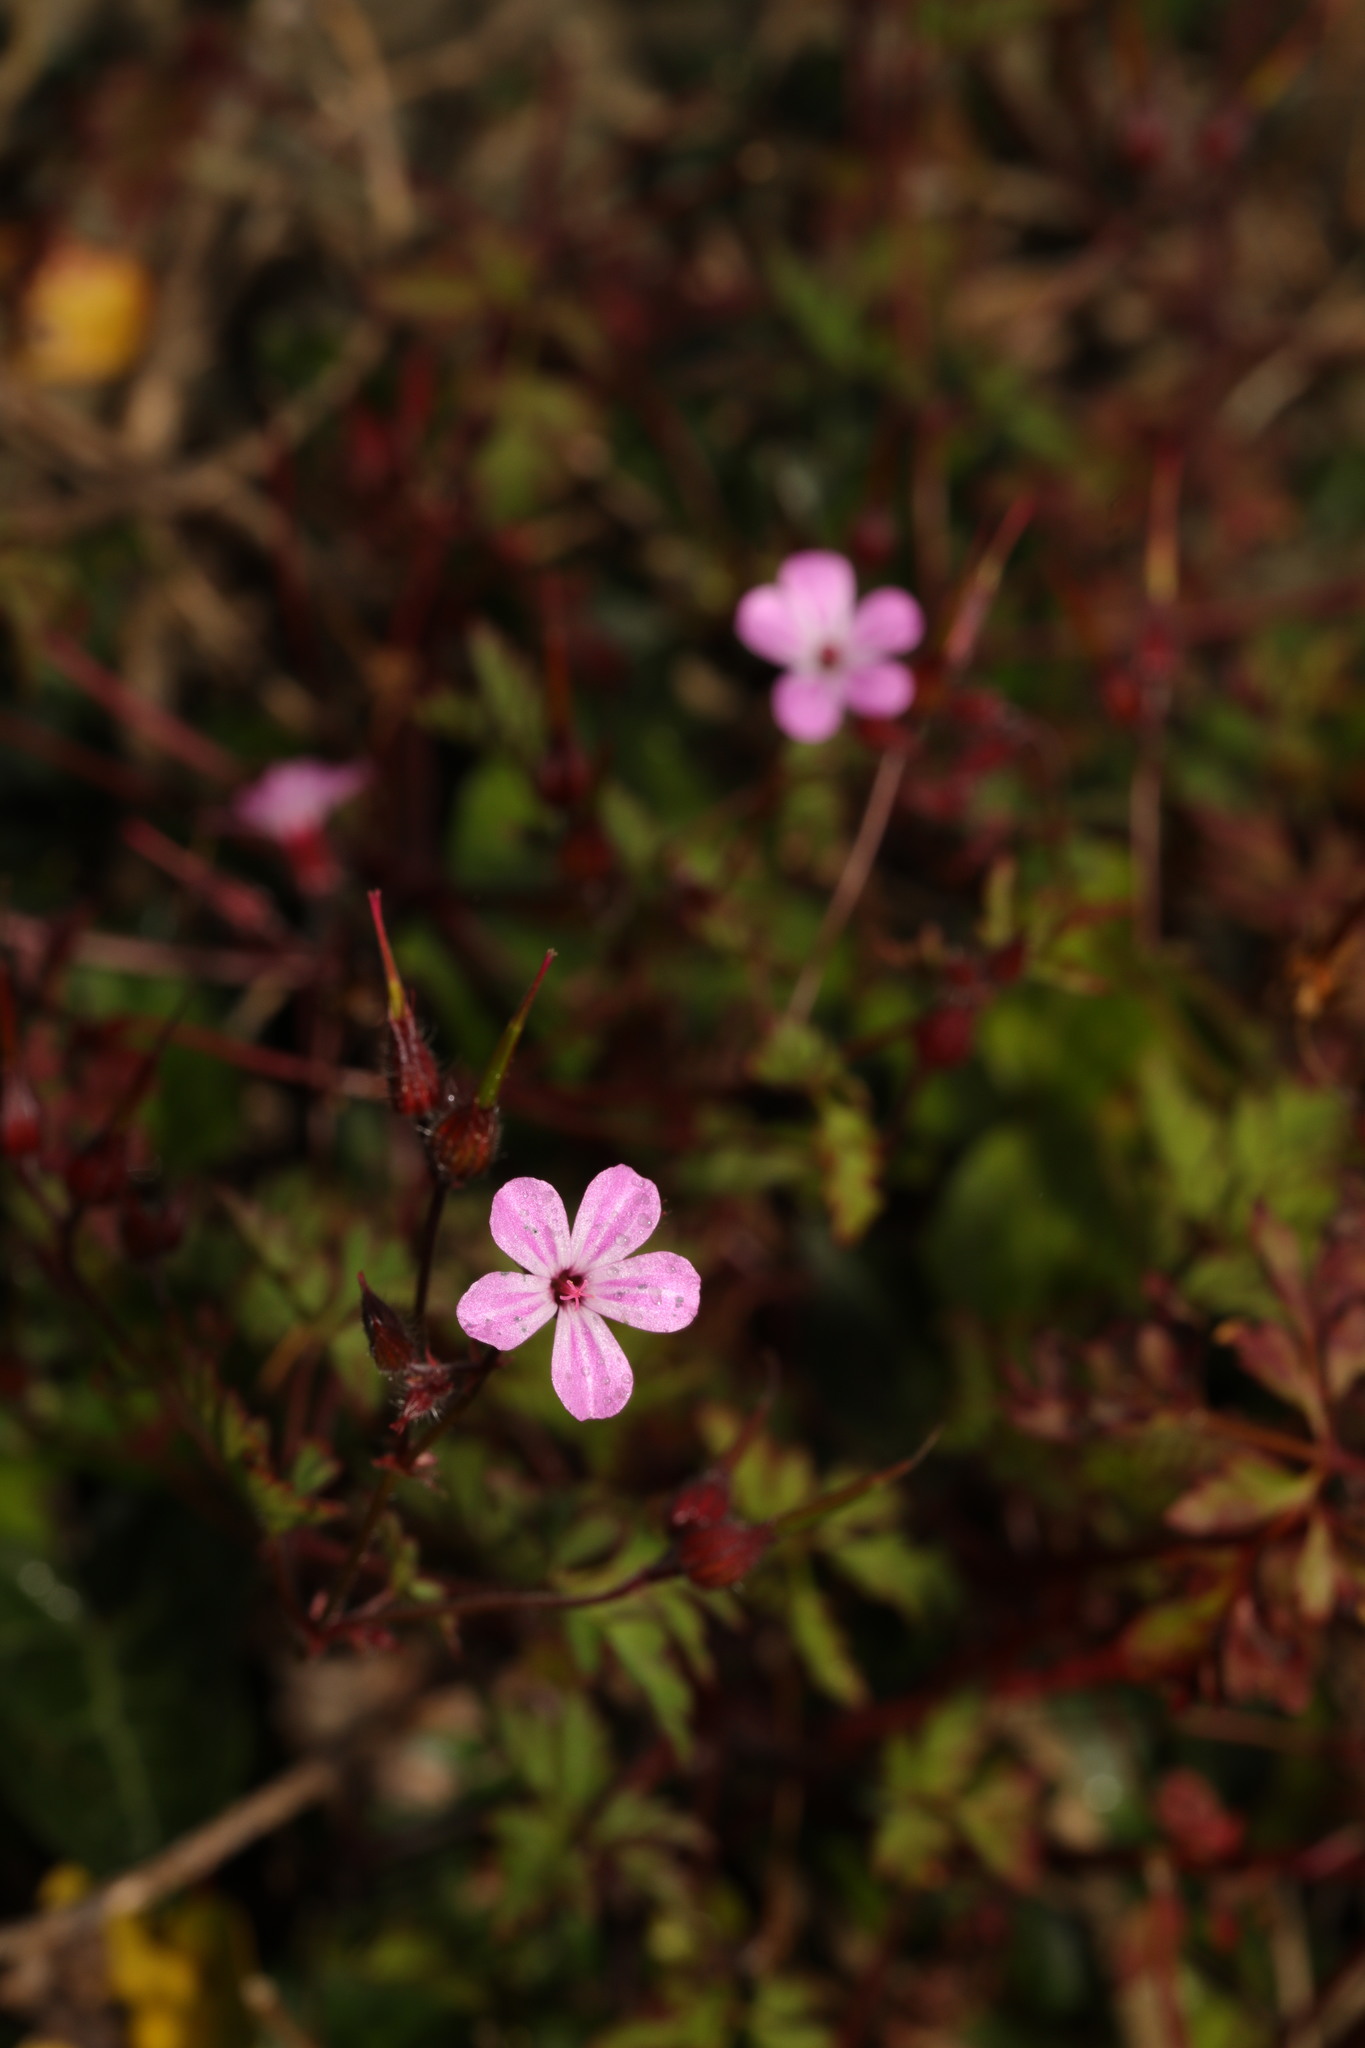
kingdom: Plantae
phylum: Tracheophyta
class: Magnoliopsida
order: Geraniales
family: Geraniaceae
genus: Geranium
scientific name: Geranium robertianum
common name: Herb-robert
